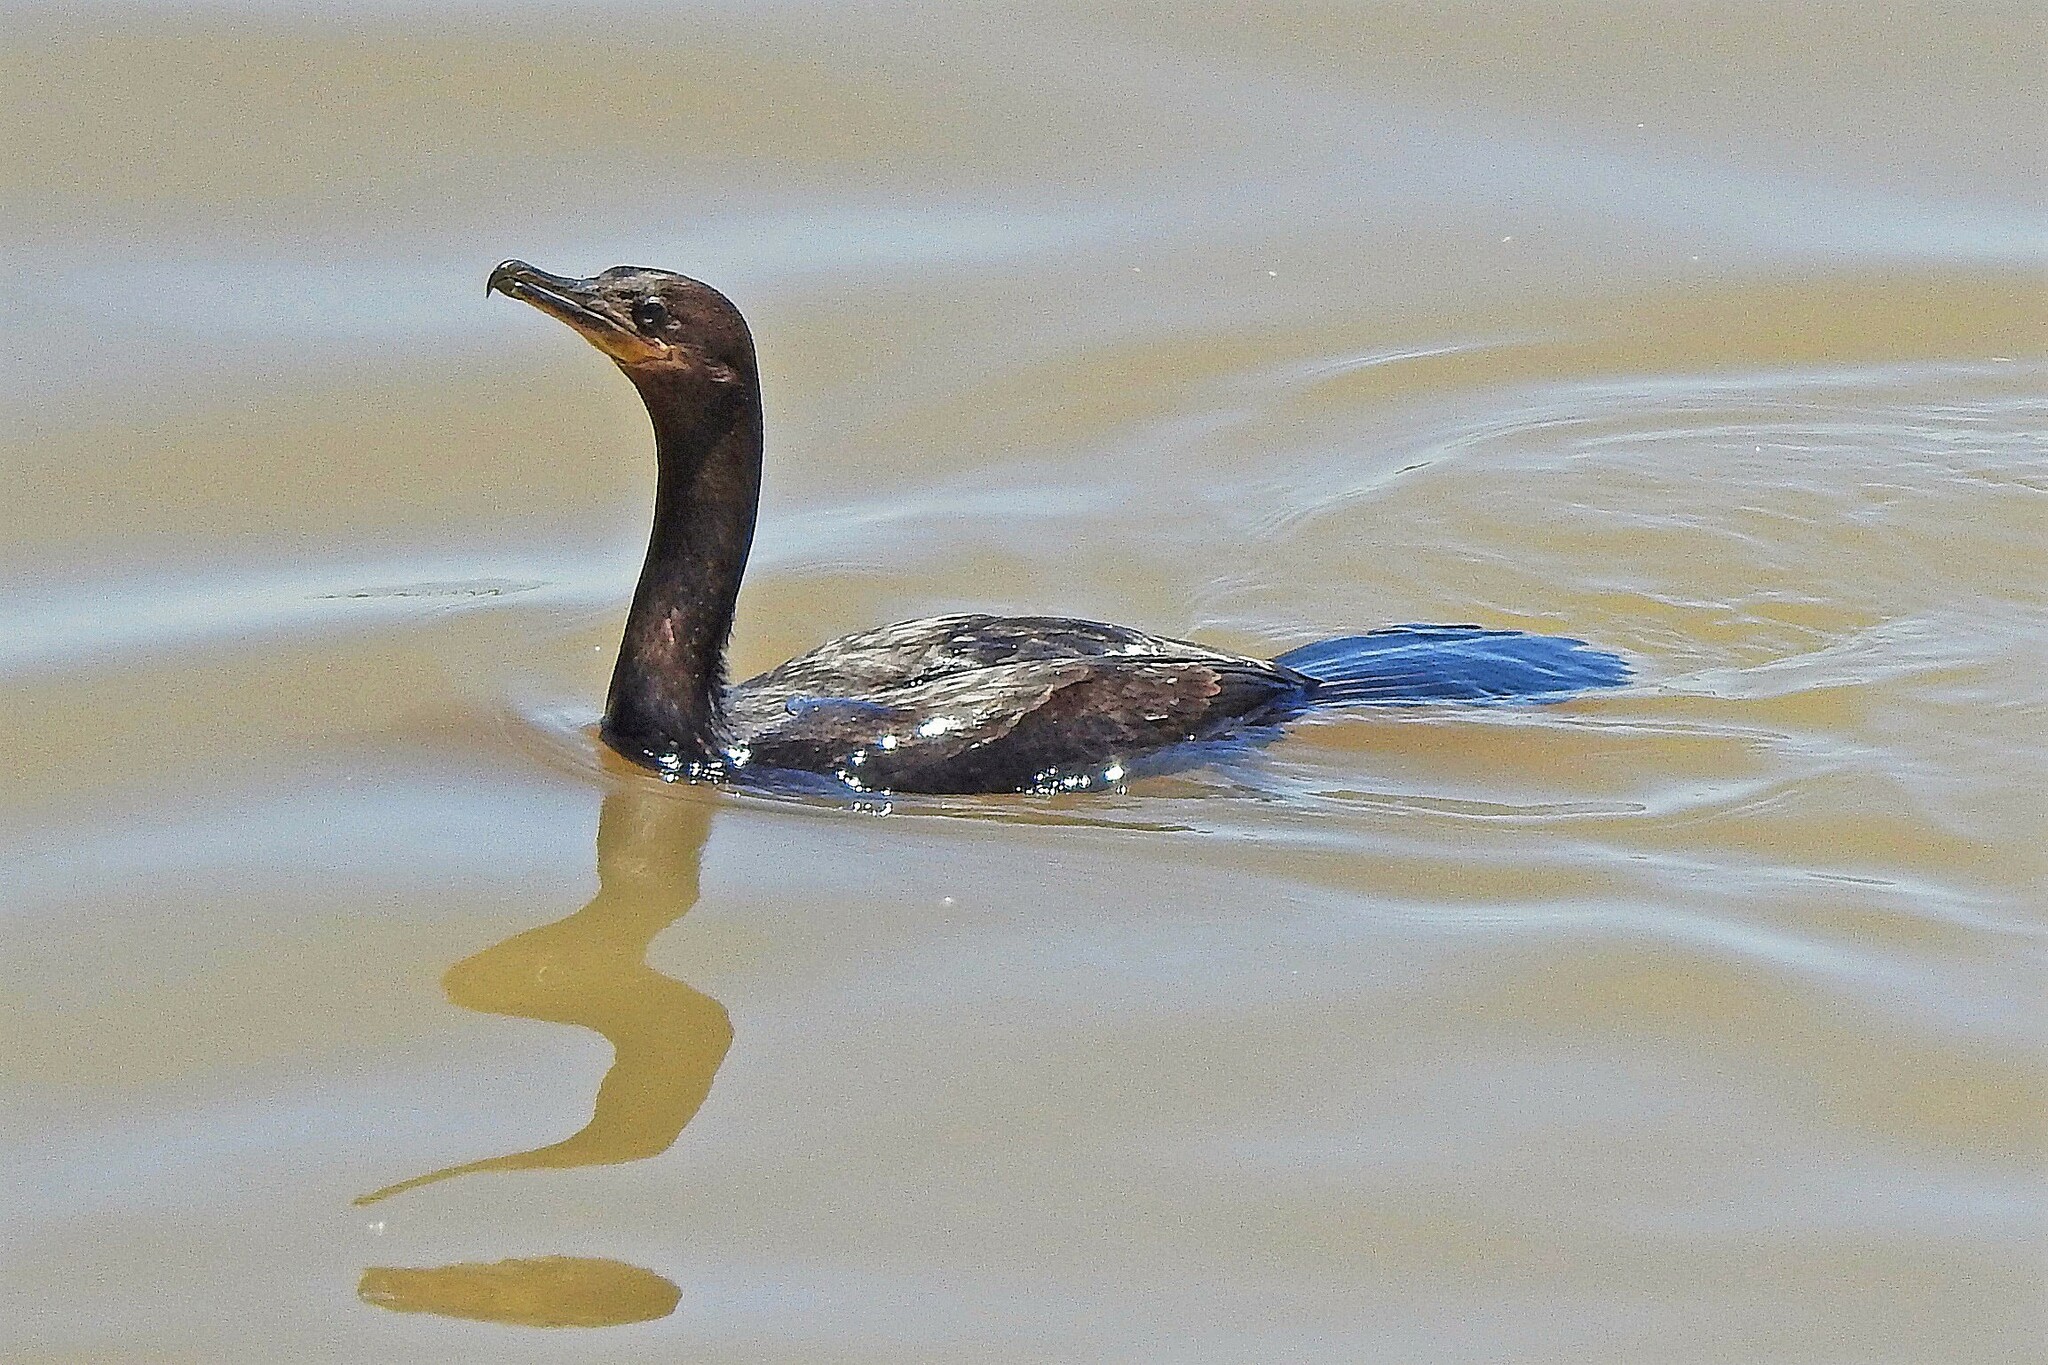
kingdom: Animalia
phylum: Chordata
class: Aves
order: Suliformes
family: Phalacrocoracidae
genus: Phalacrocorax
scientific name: Phalacrocorax brasilianus
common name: Neotropic cormorant
